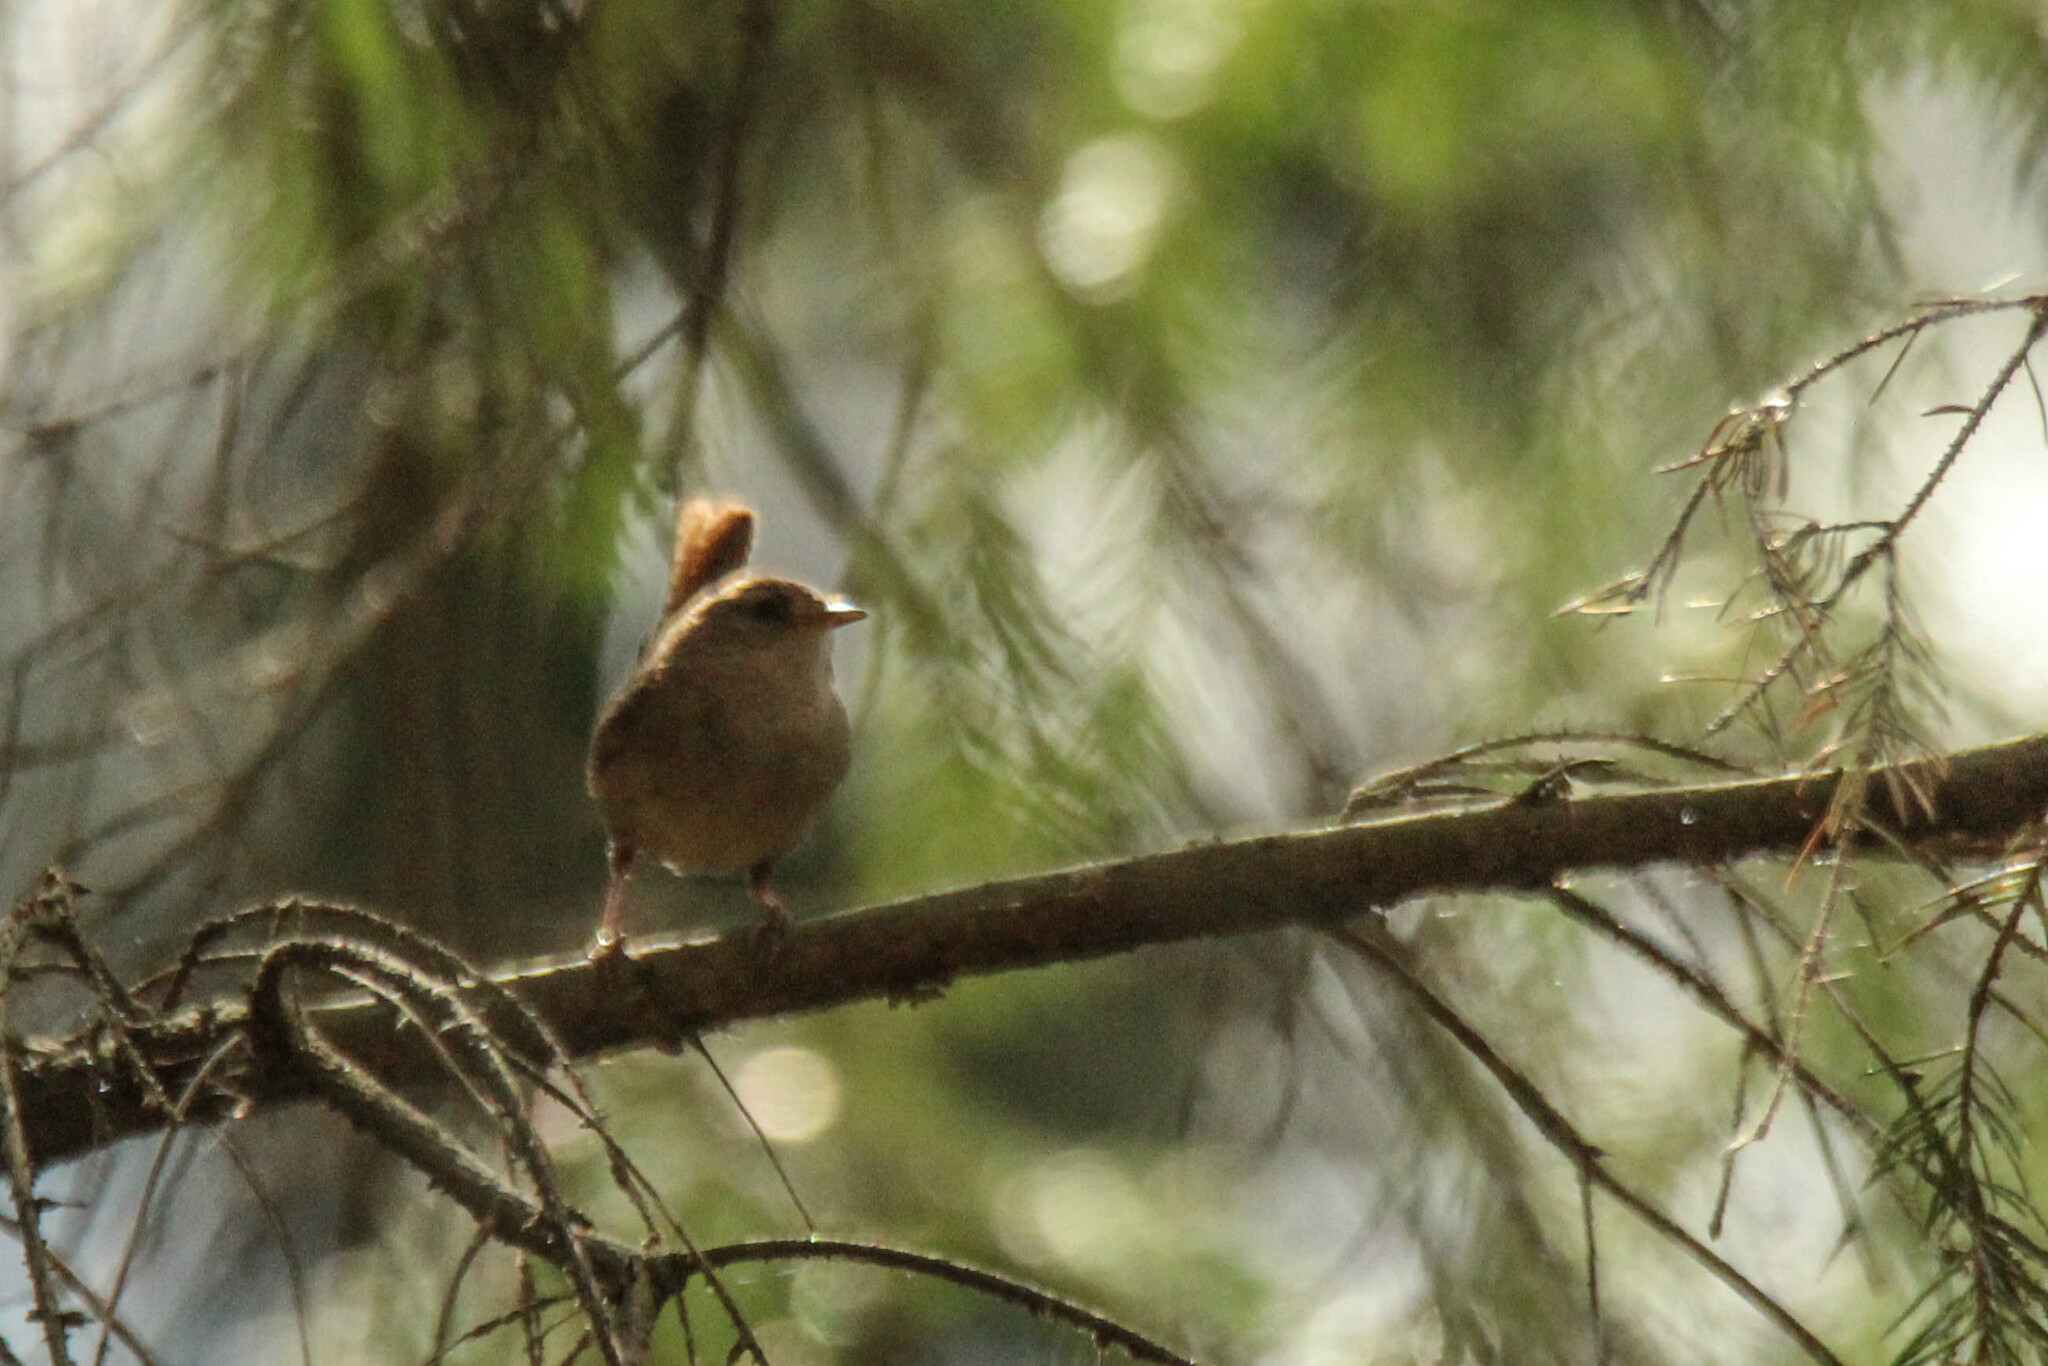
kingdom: Animalia
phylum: Chordata
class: Aves
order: Passeriformes
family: Troglodytidae
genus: Troglodytes
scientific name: Troglodytes troglodytes
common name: Eurasian wren
